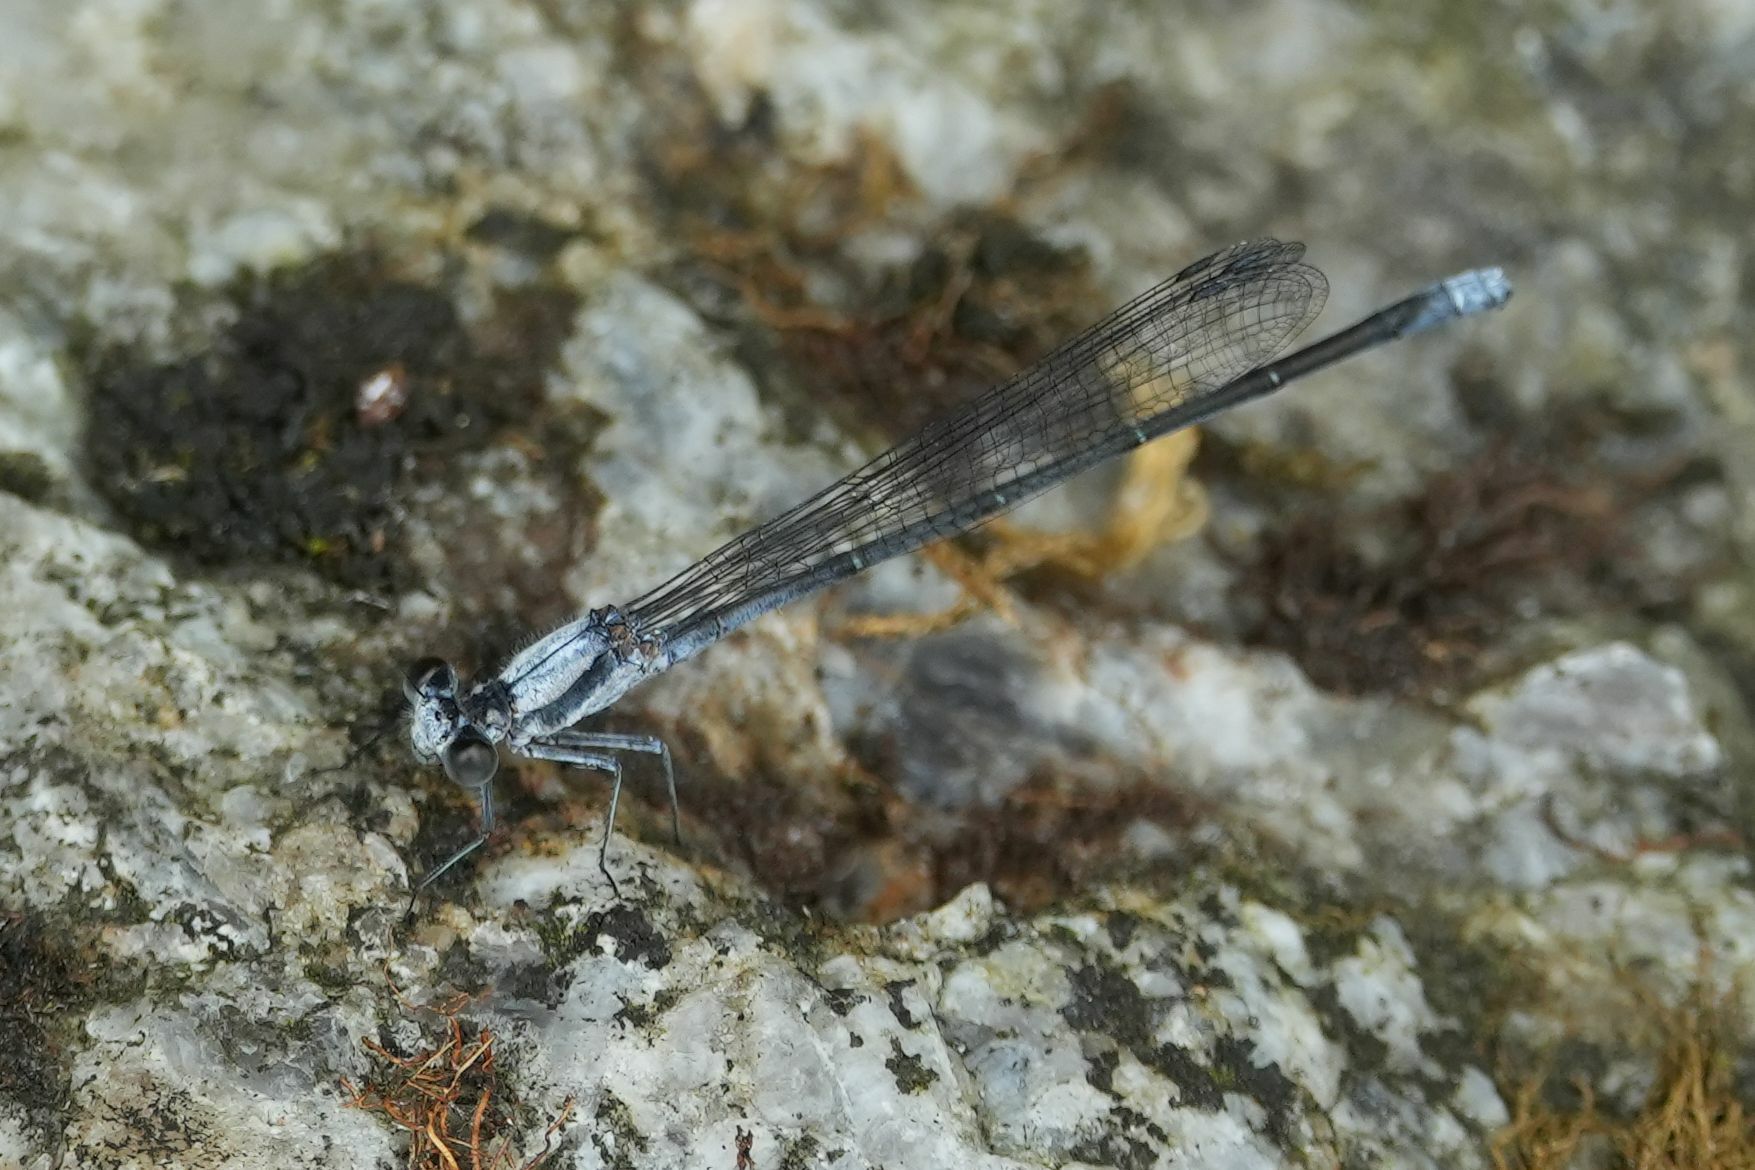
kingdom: Animalia
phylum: Arthropoda
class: Insecta
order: Odonata
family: Coenagrionidae
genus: Argia
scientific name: Argia moesta
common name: Powdered dancer
